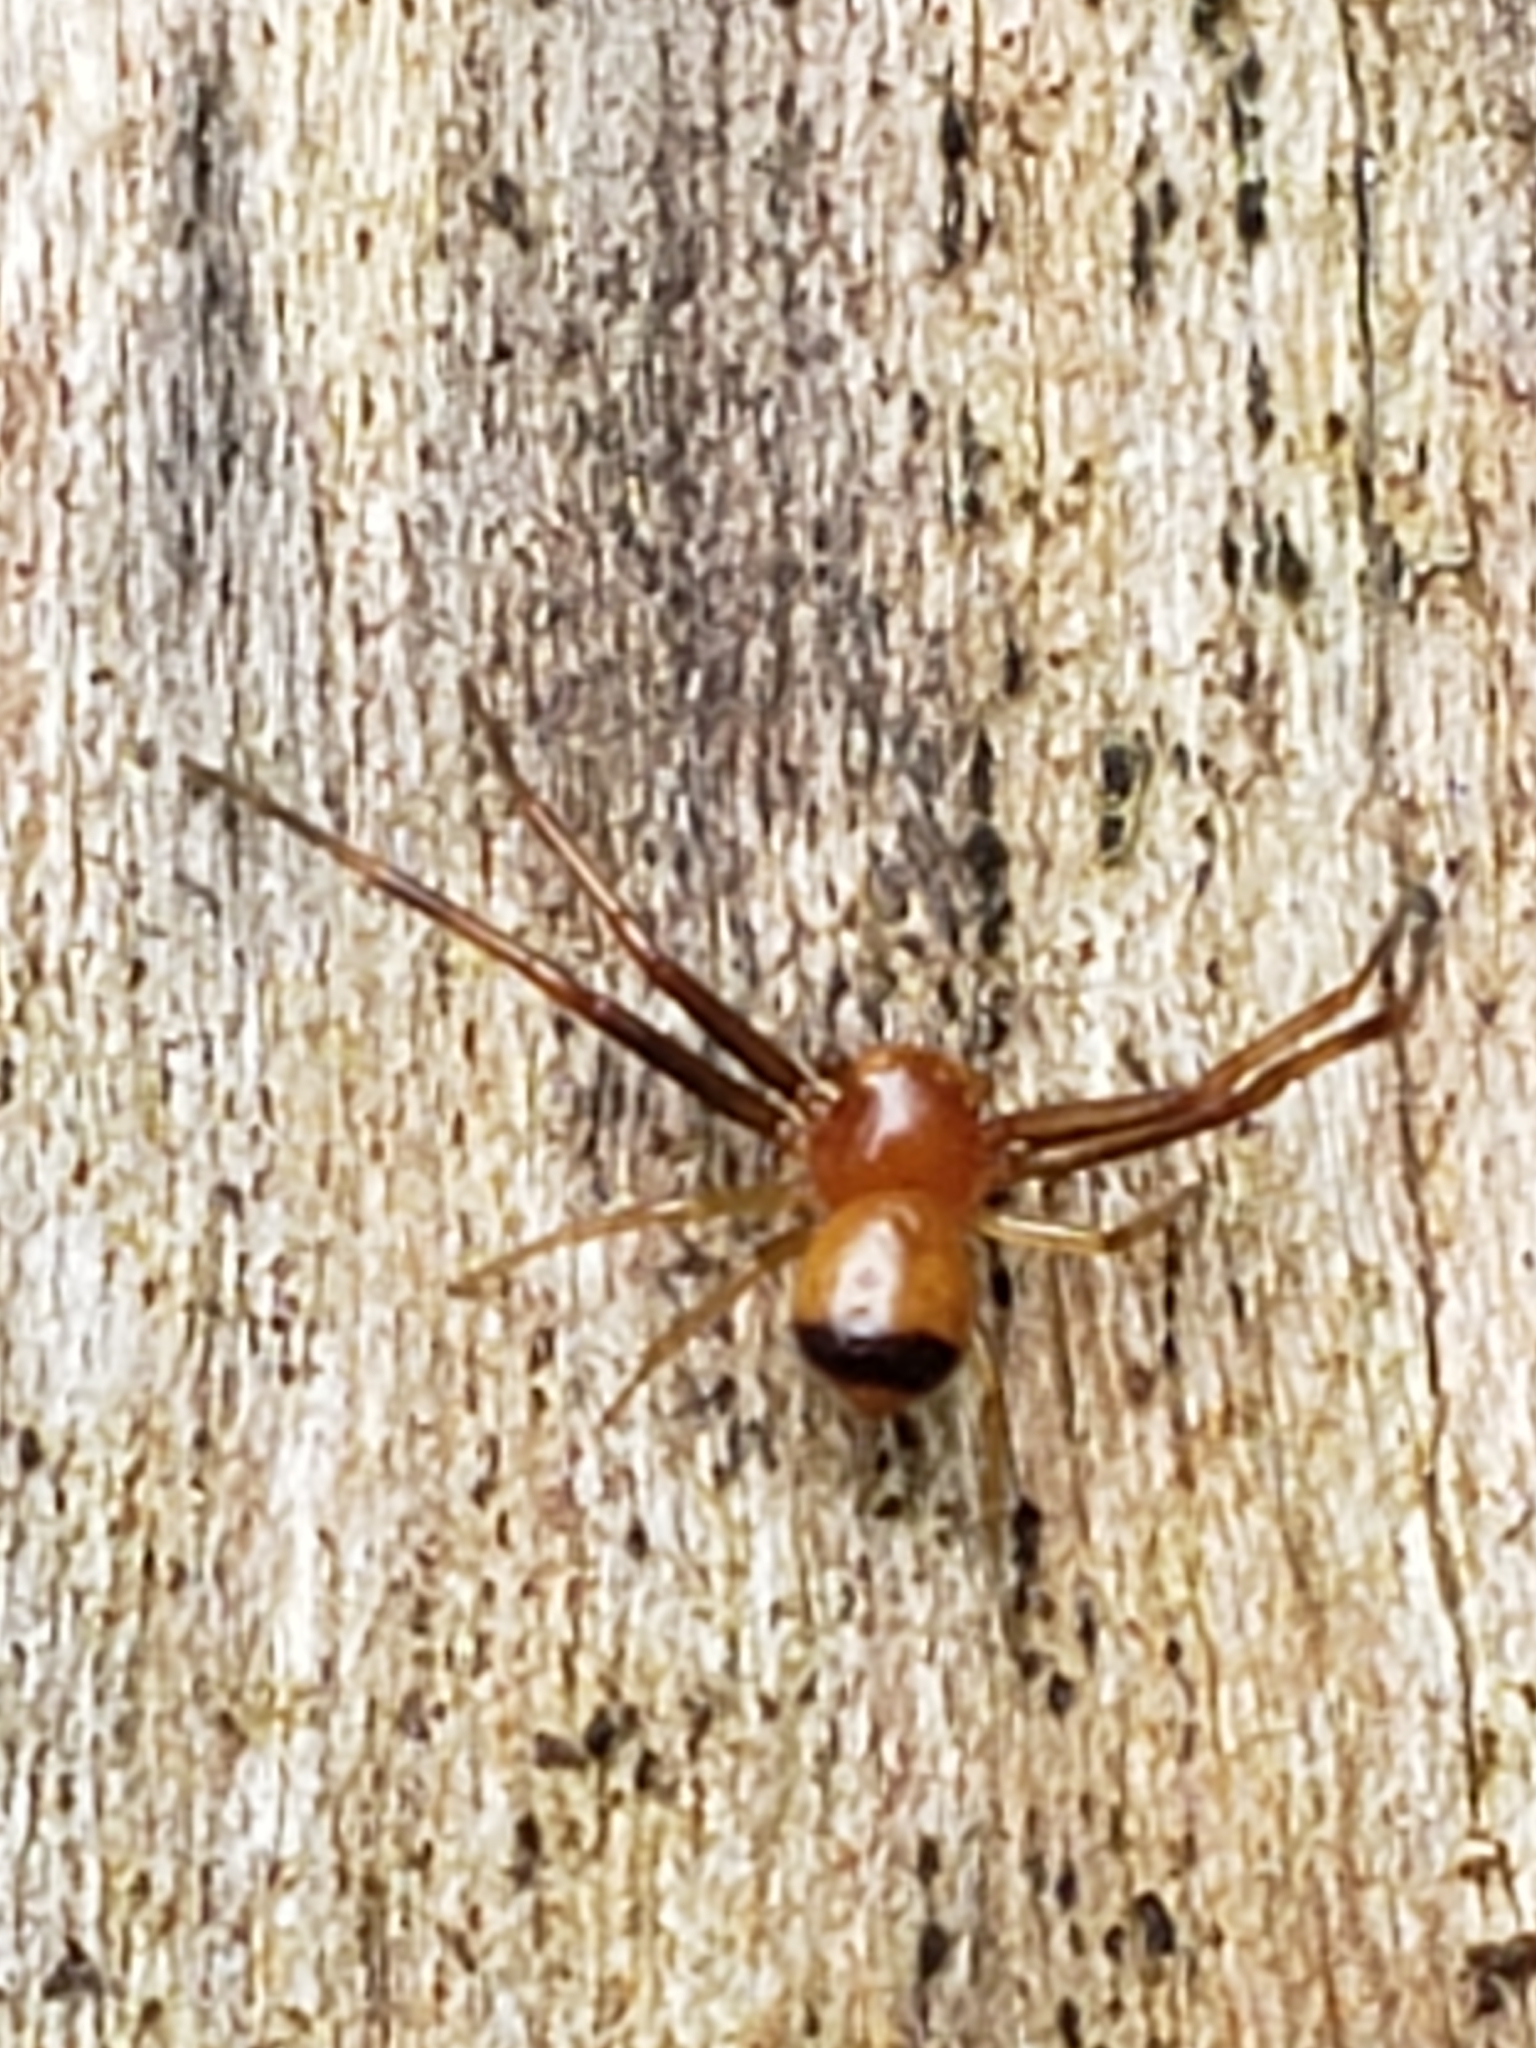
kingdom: Animalia
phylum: Arthropoda
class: Arachnida
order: Araneae
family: Thomisidae
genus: Synema
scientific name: Synema parvulum
